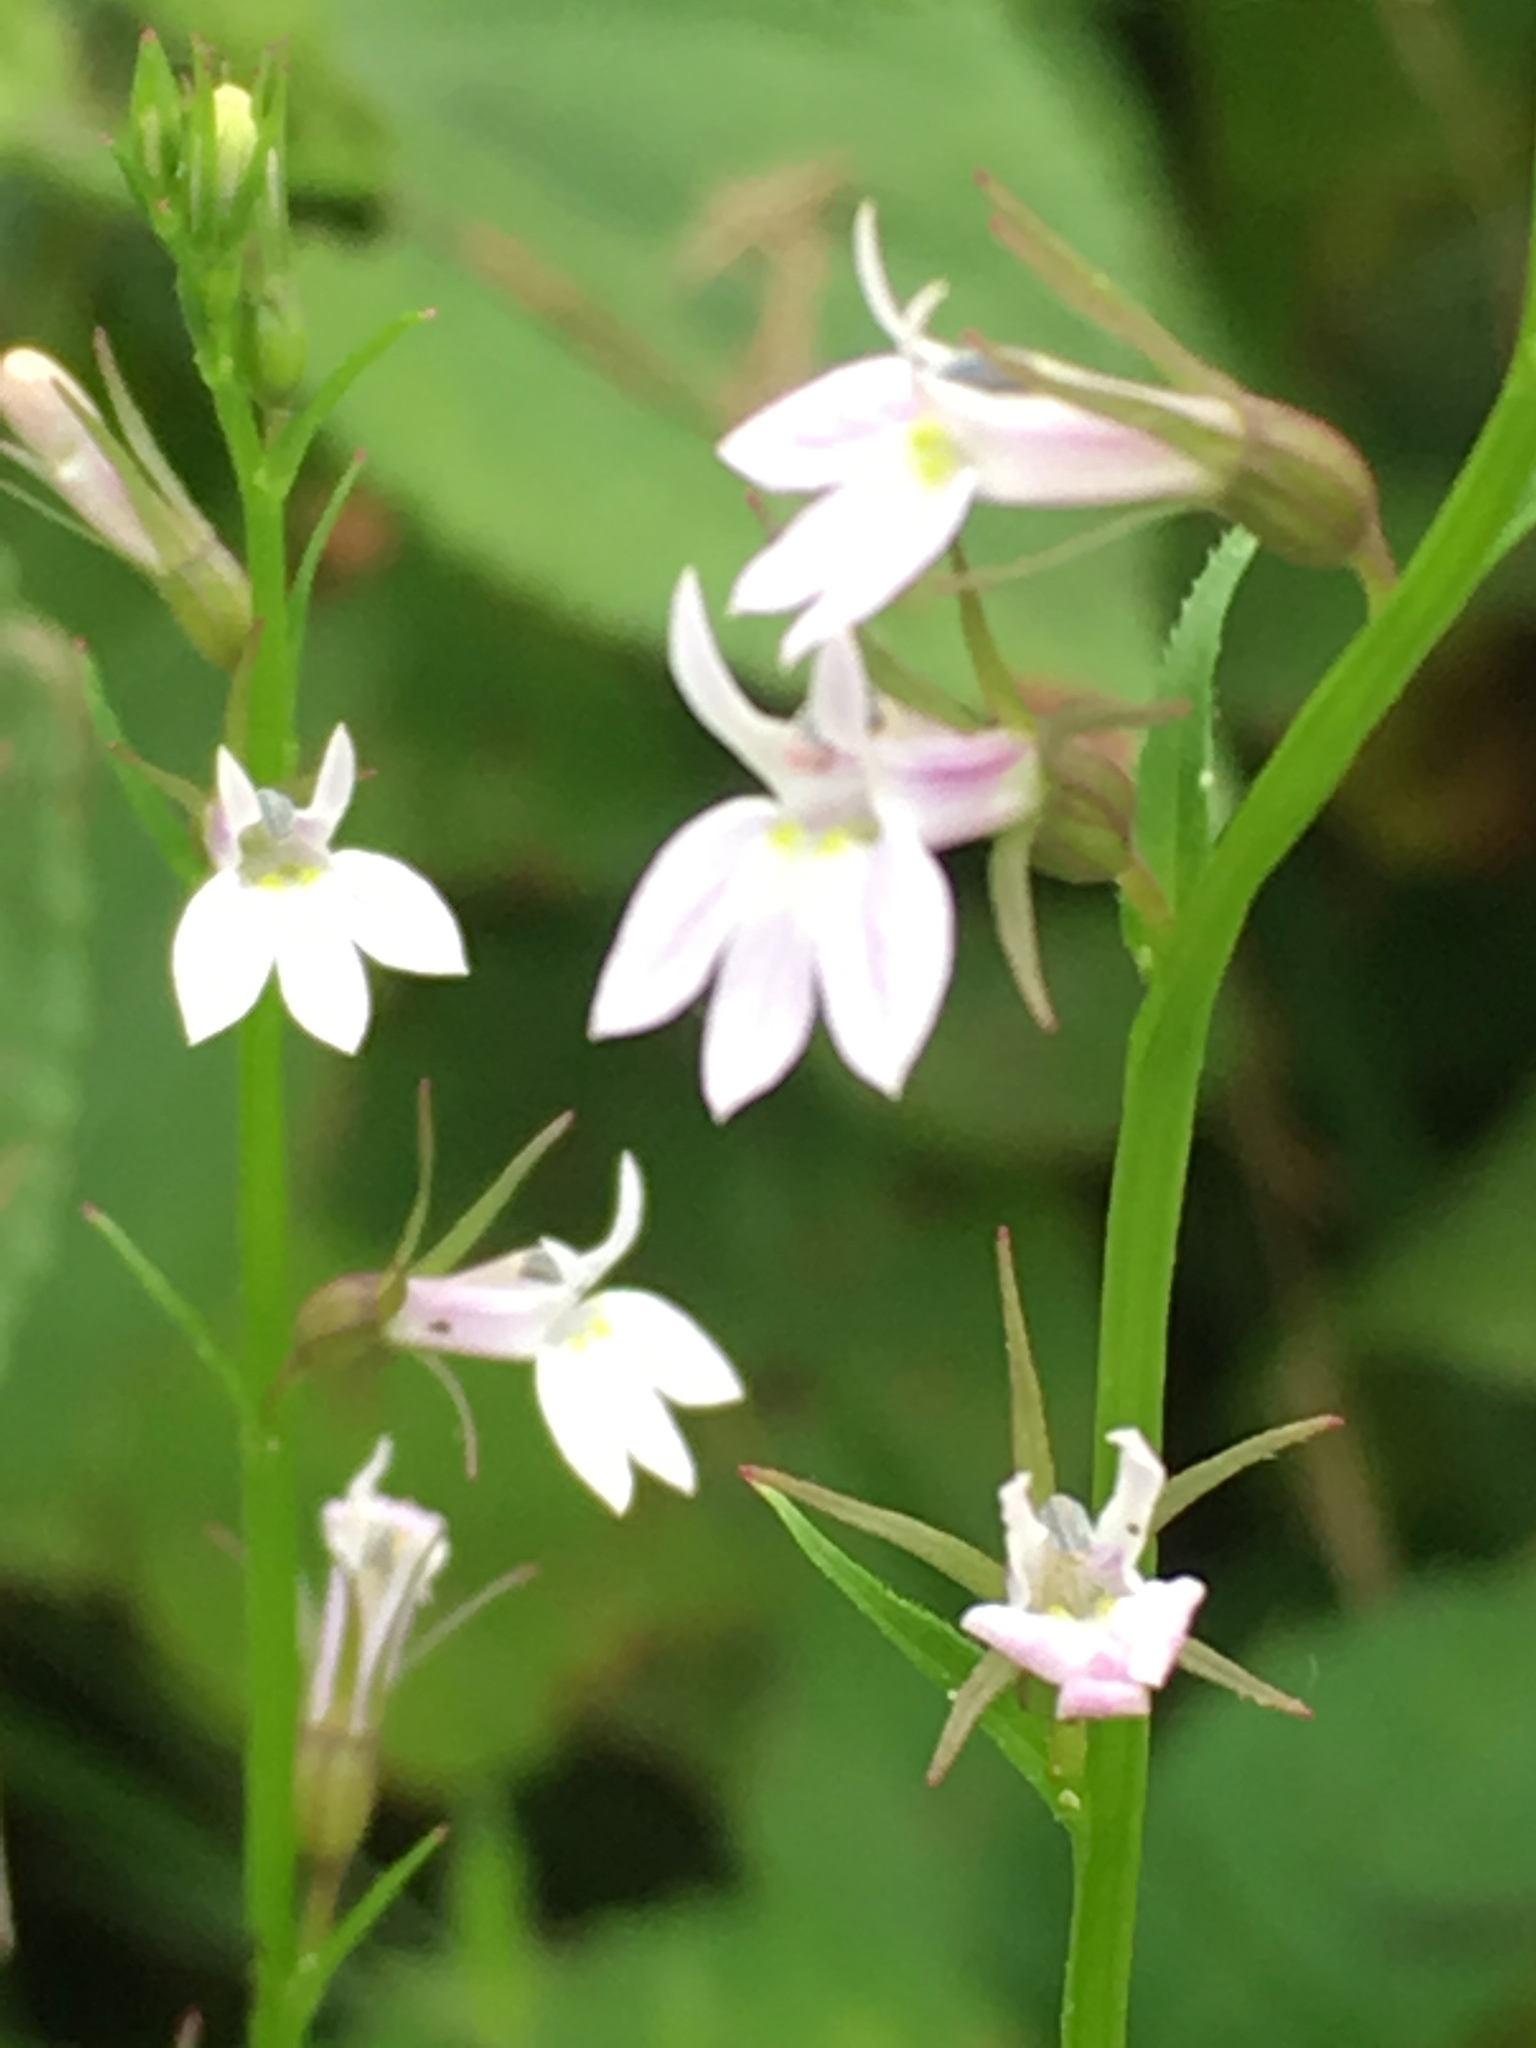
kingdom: Plantae
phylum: Tracheophyta
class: Magnoliopsida
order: Asterales
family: Campanulaceae
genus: Lobelia
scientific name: Lobelia inflata
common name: Indian tobacco
